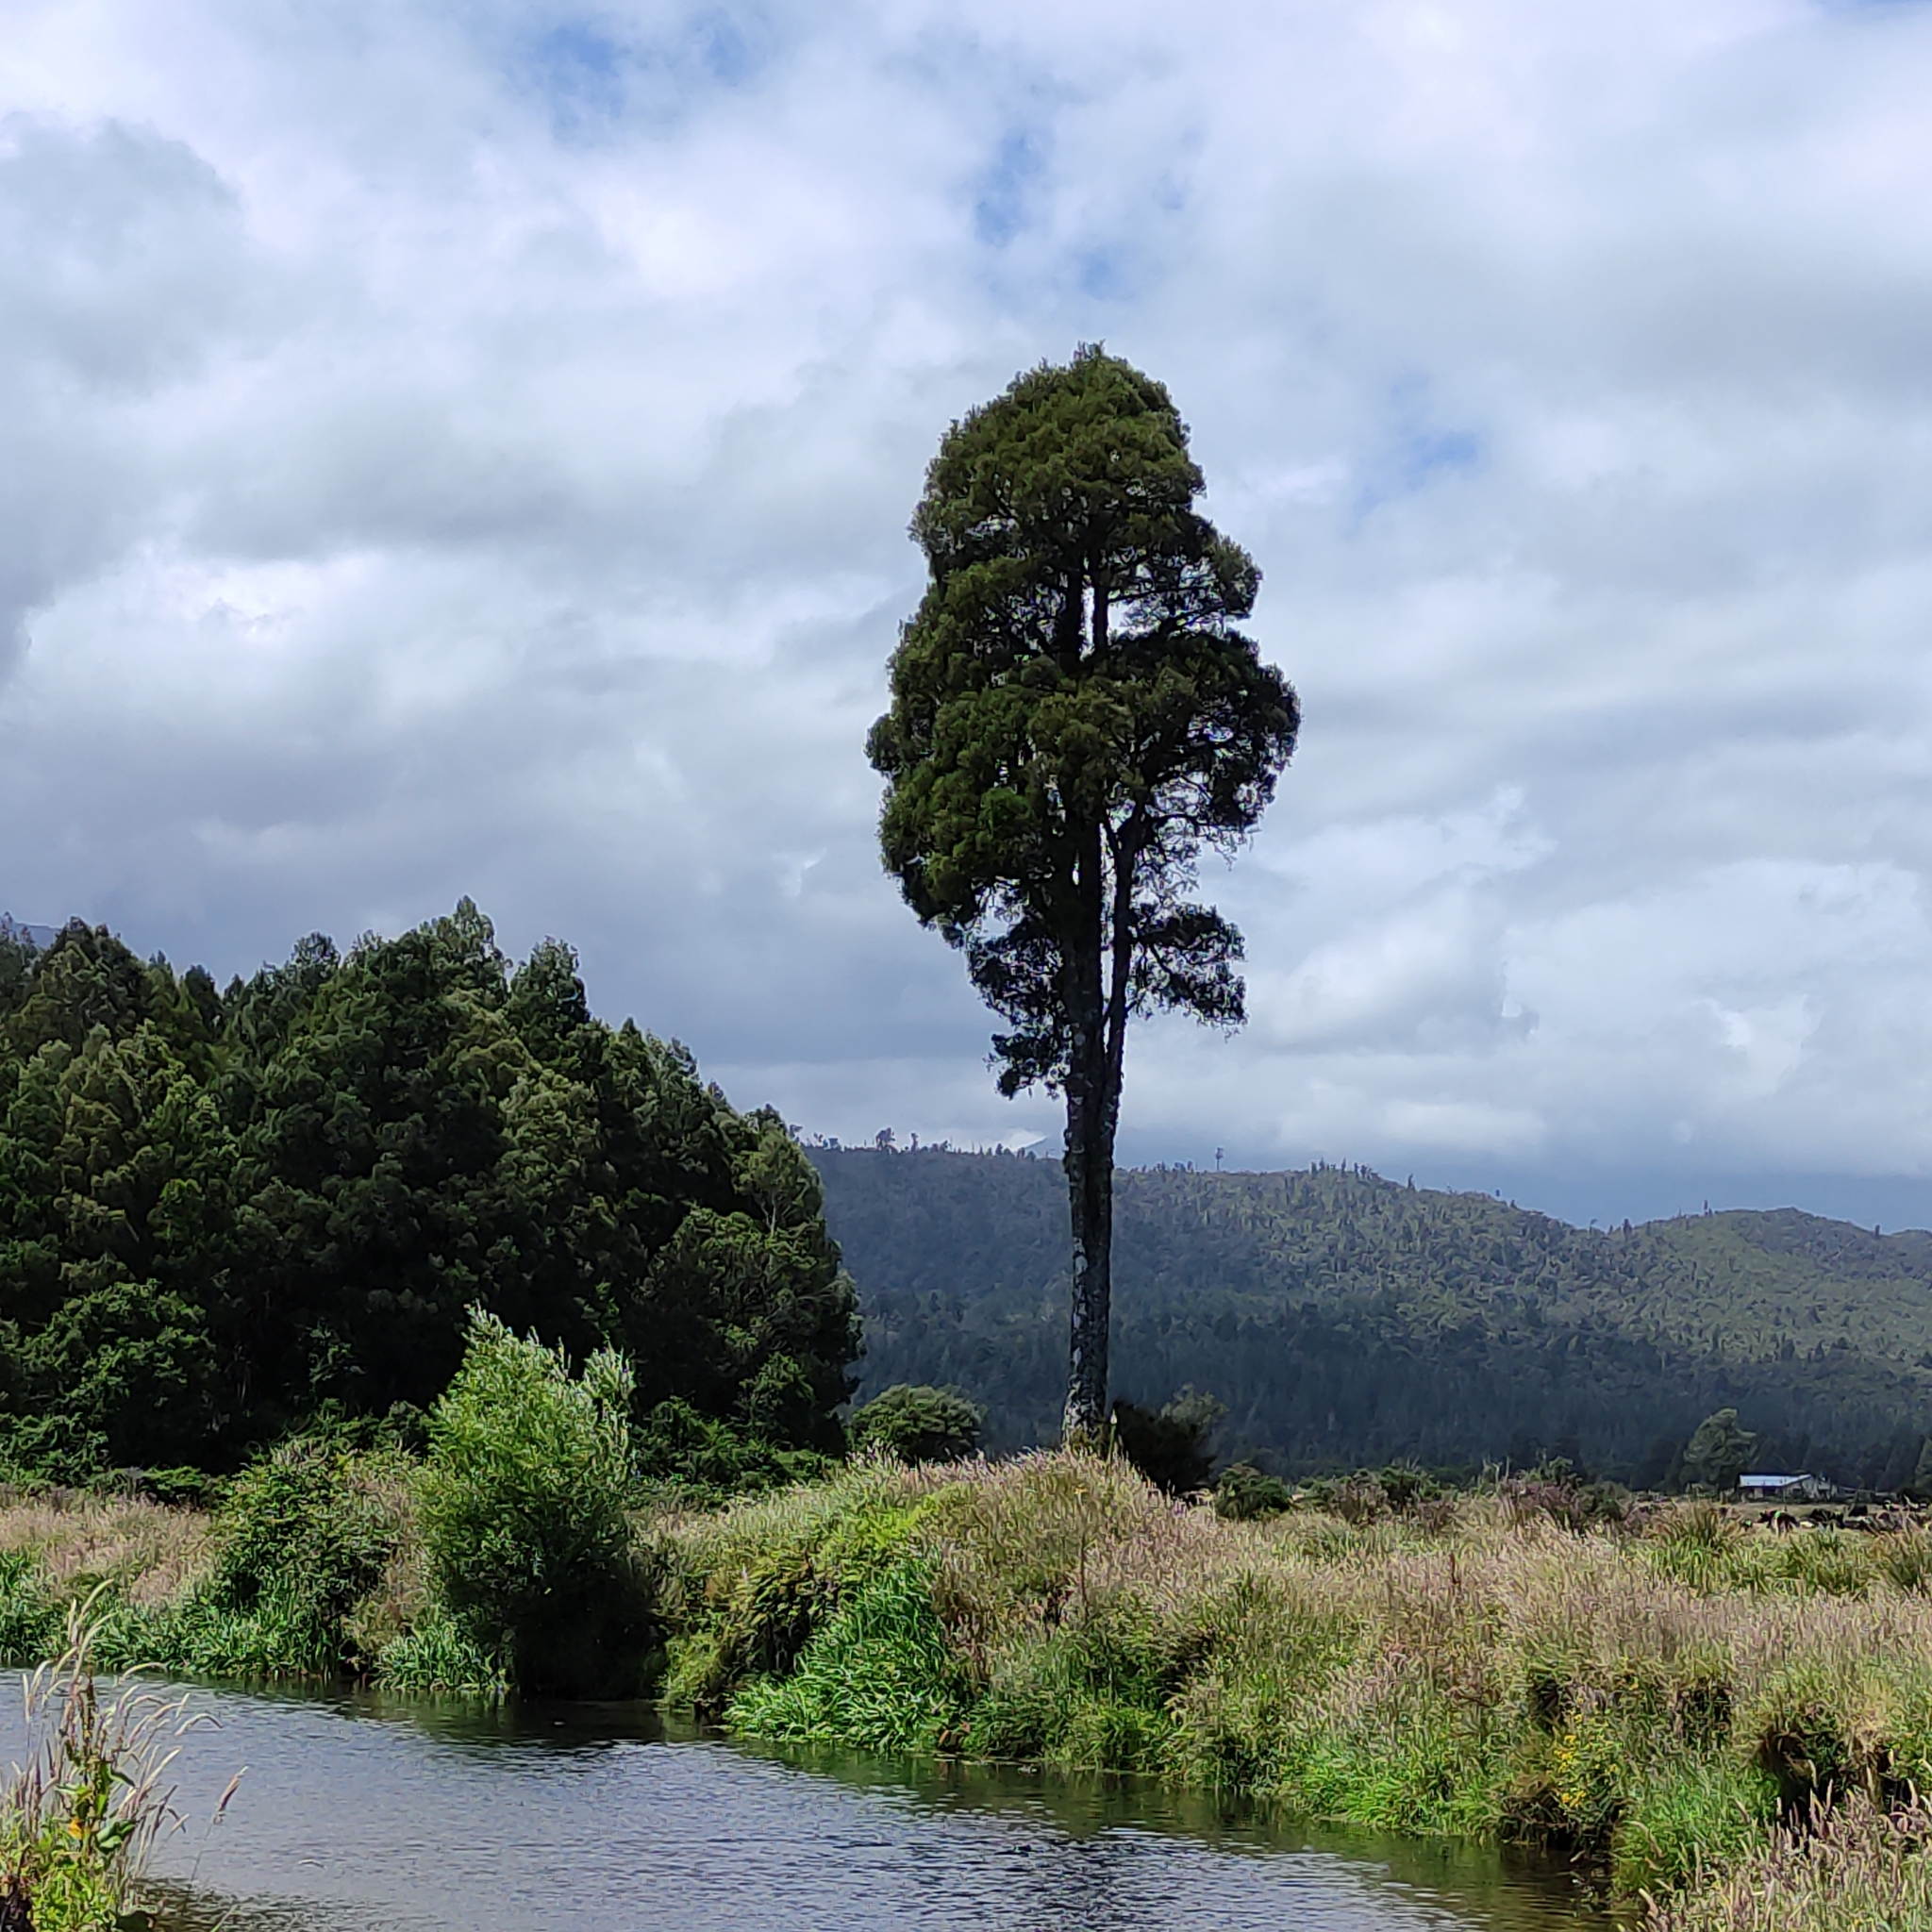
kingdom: Plantae
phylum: Tracheophyta
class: Pinopsida
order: Pinales
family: Podocarpaceae
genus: Dacrycarpus
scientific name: Dacrycarpus dacrydioides
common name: White pine
